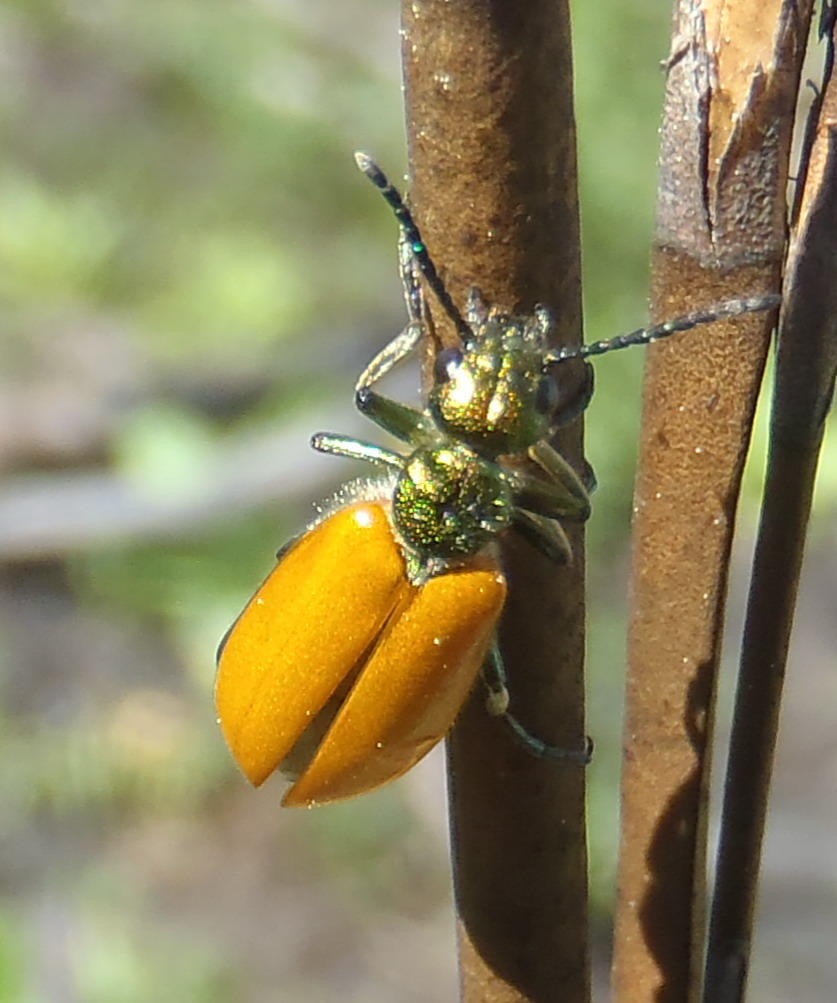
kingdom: Animalia
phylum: Arthropoda
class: Insecta
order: Coleoptera
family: Meloidae
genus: Prolytta
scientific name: Prolytta
